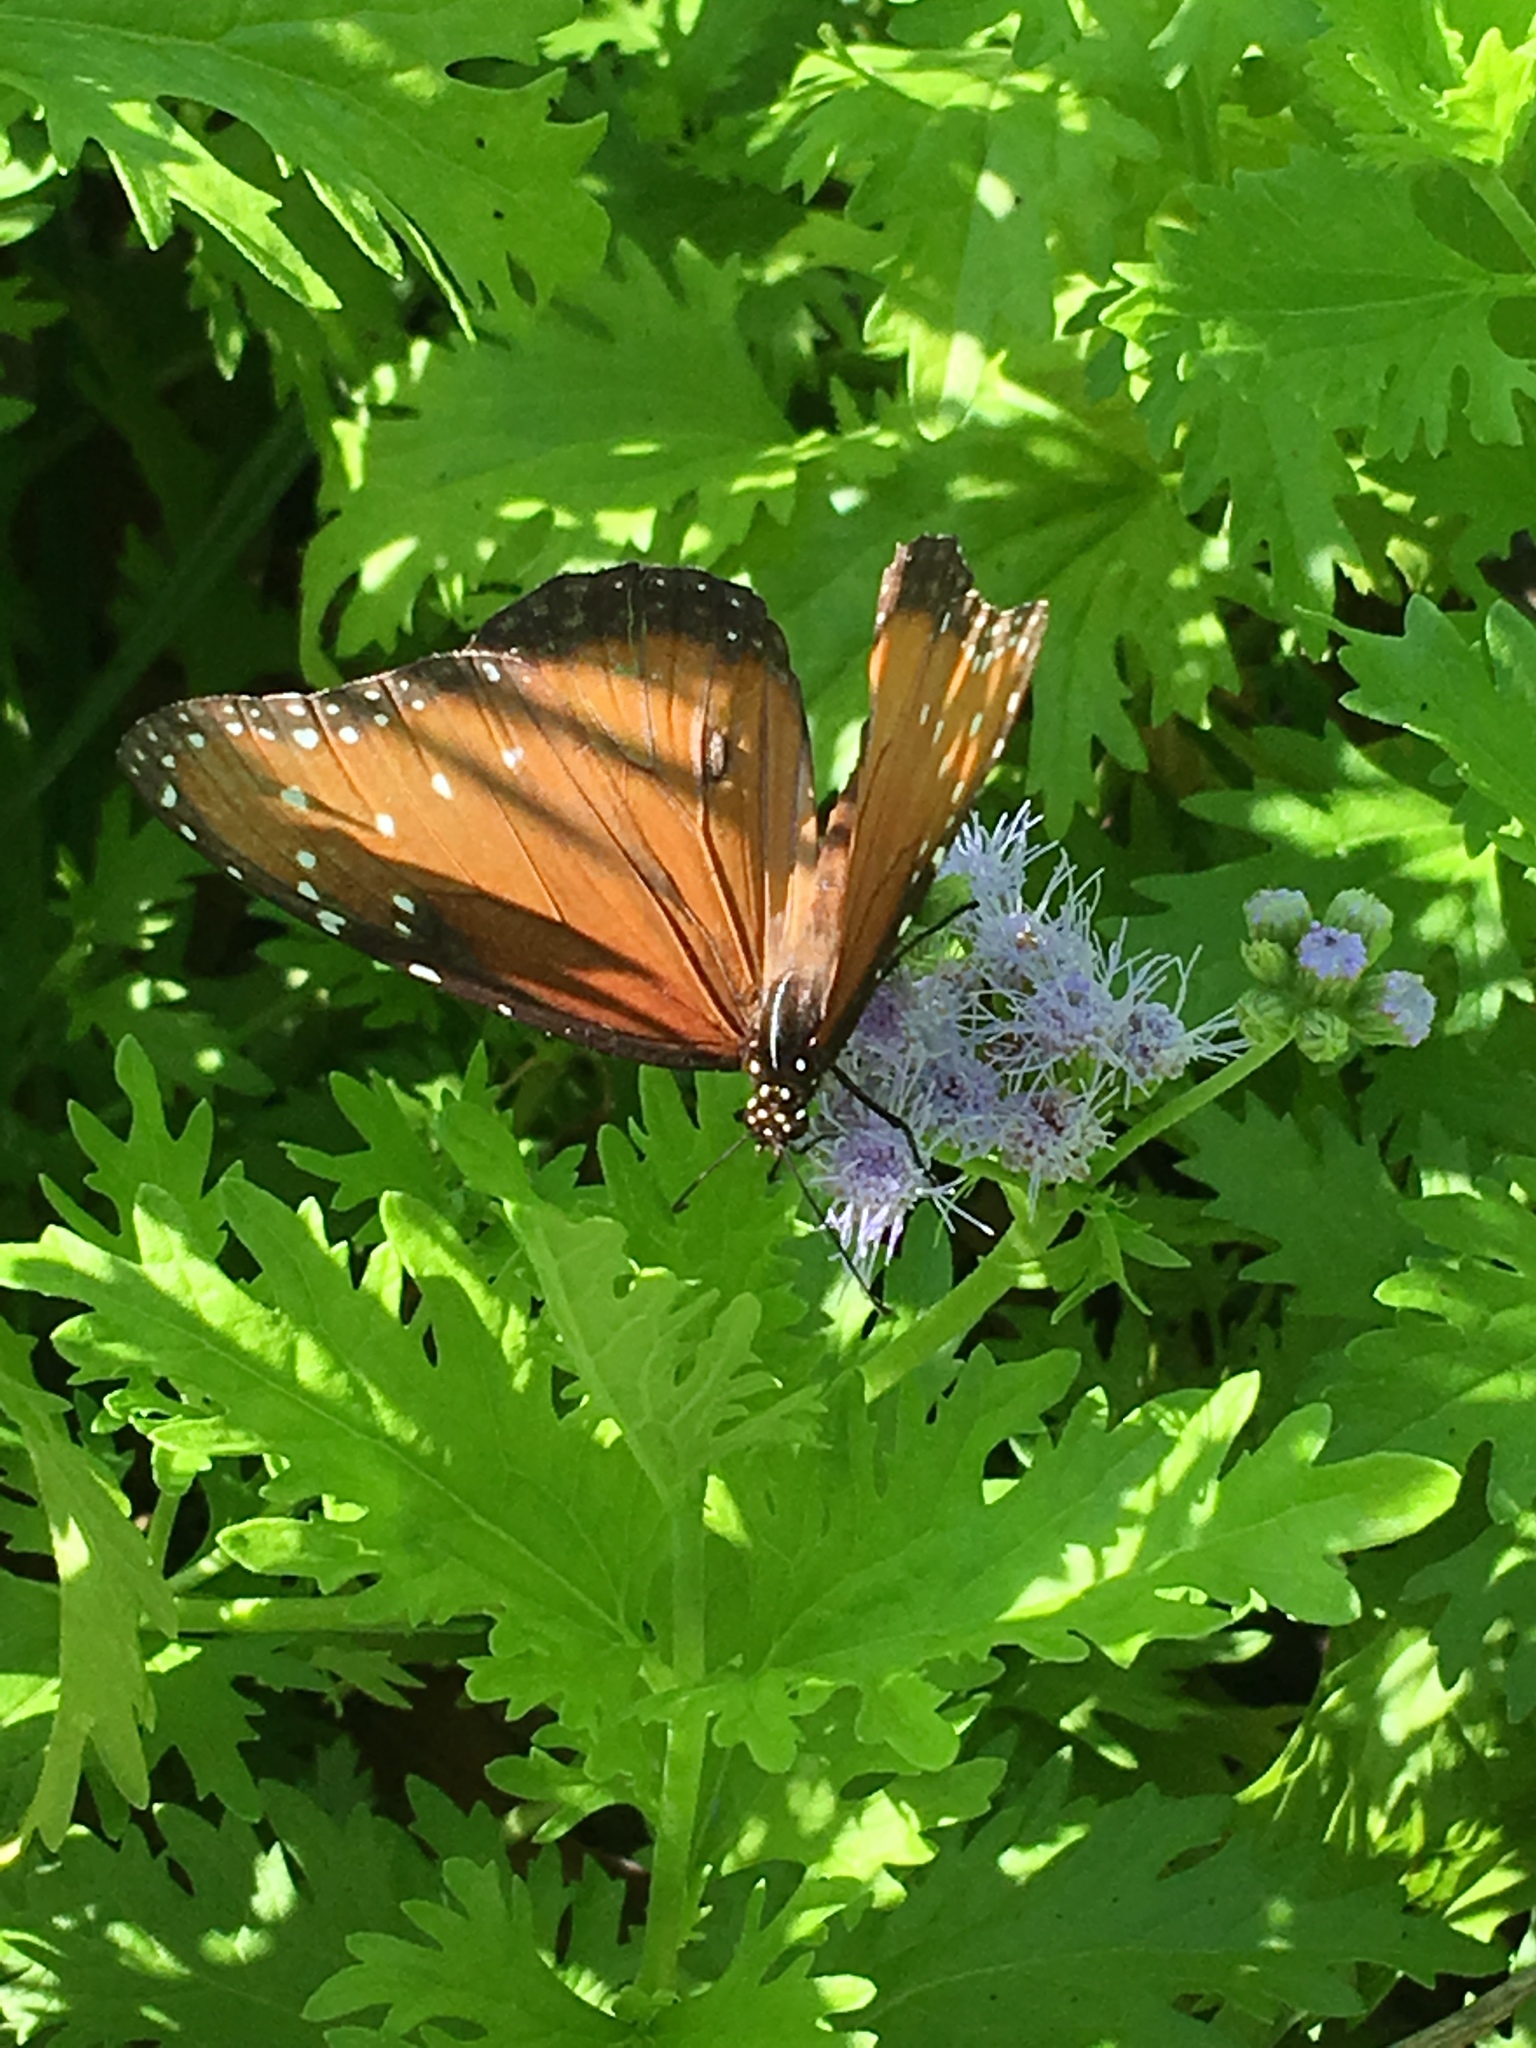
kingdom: Animalia
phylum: Arthropoda
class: Insecta
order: Lepidoptera
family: Nymphalidae
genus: Danaus
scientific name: Danaus gilippus
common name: Queen
